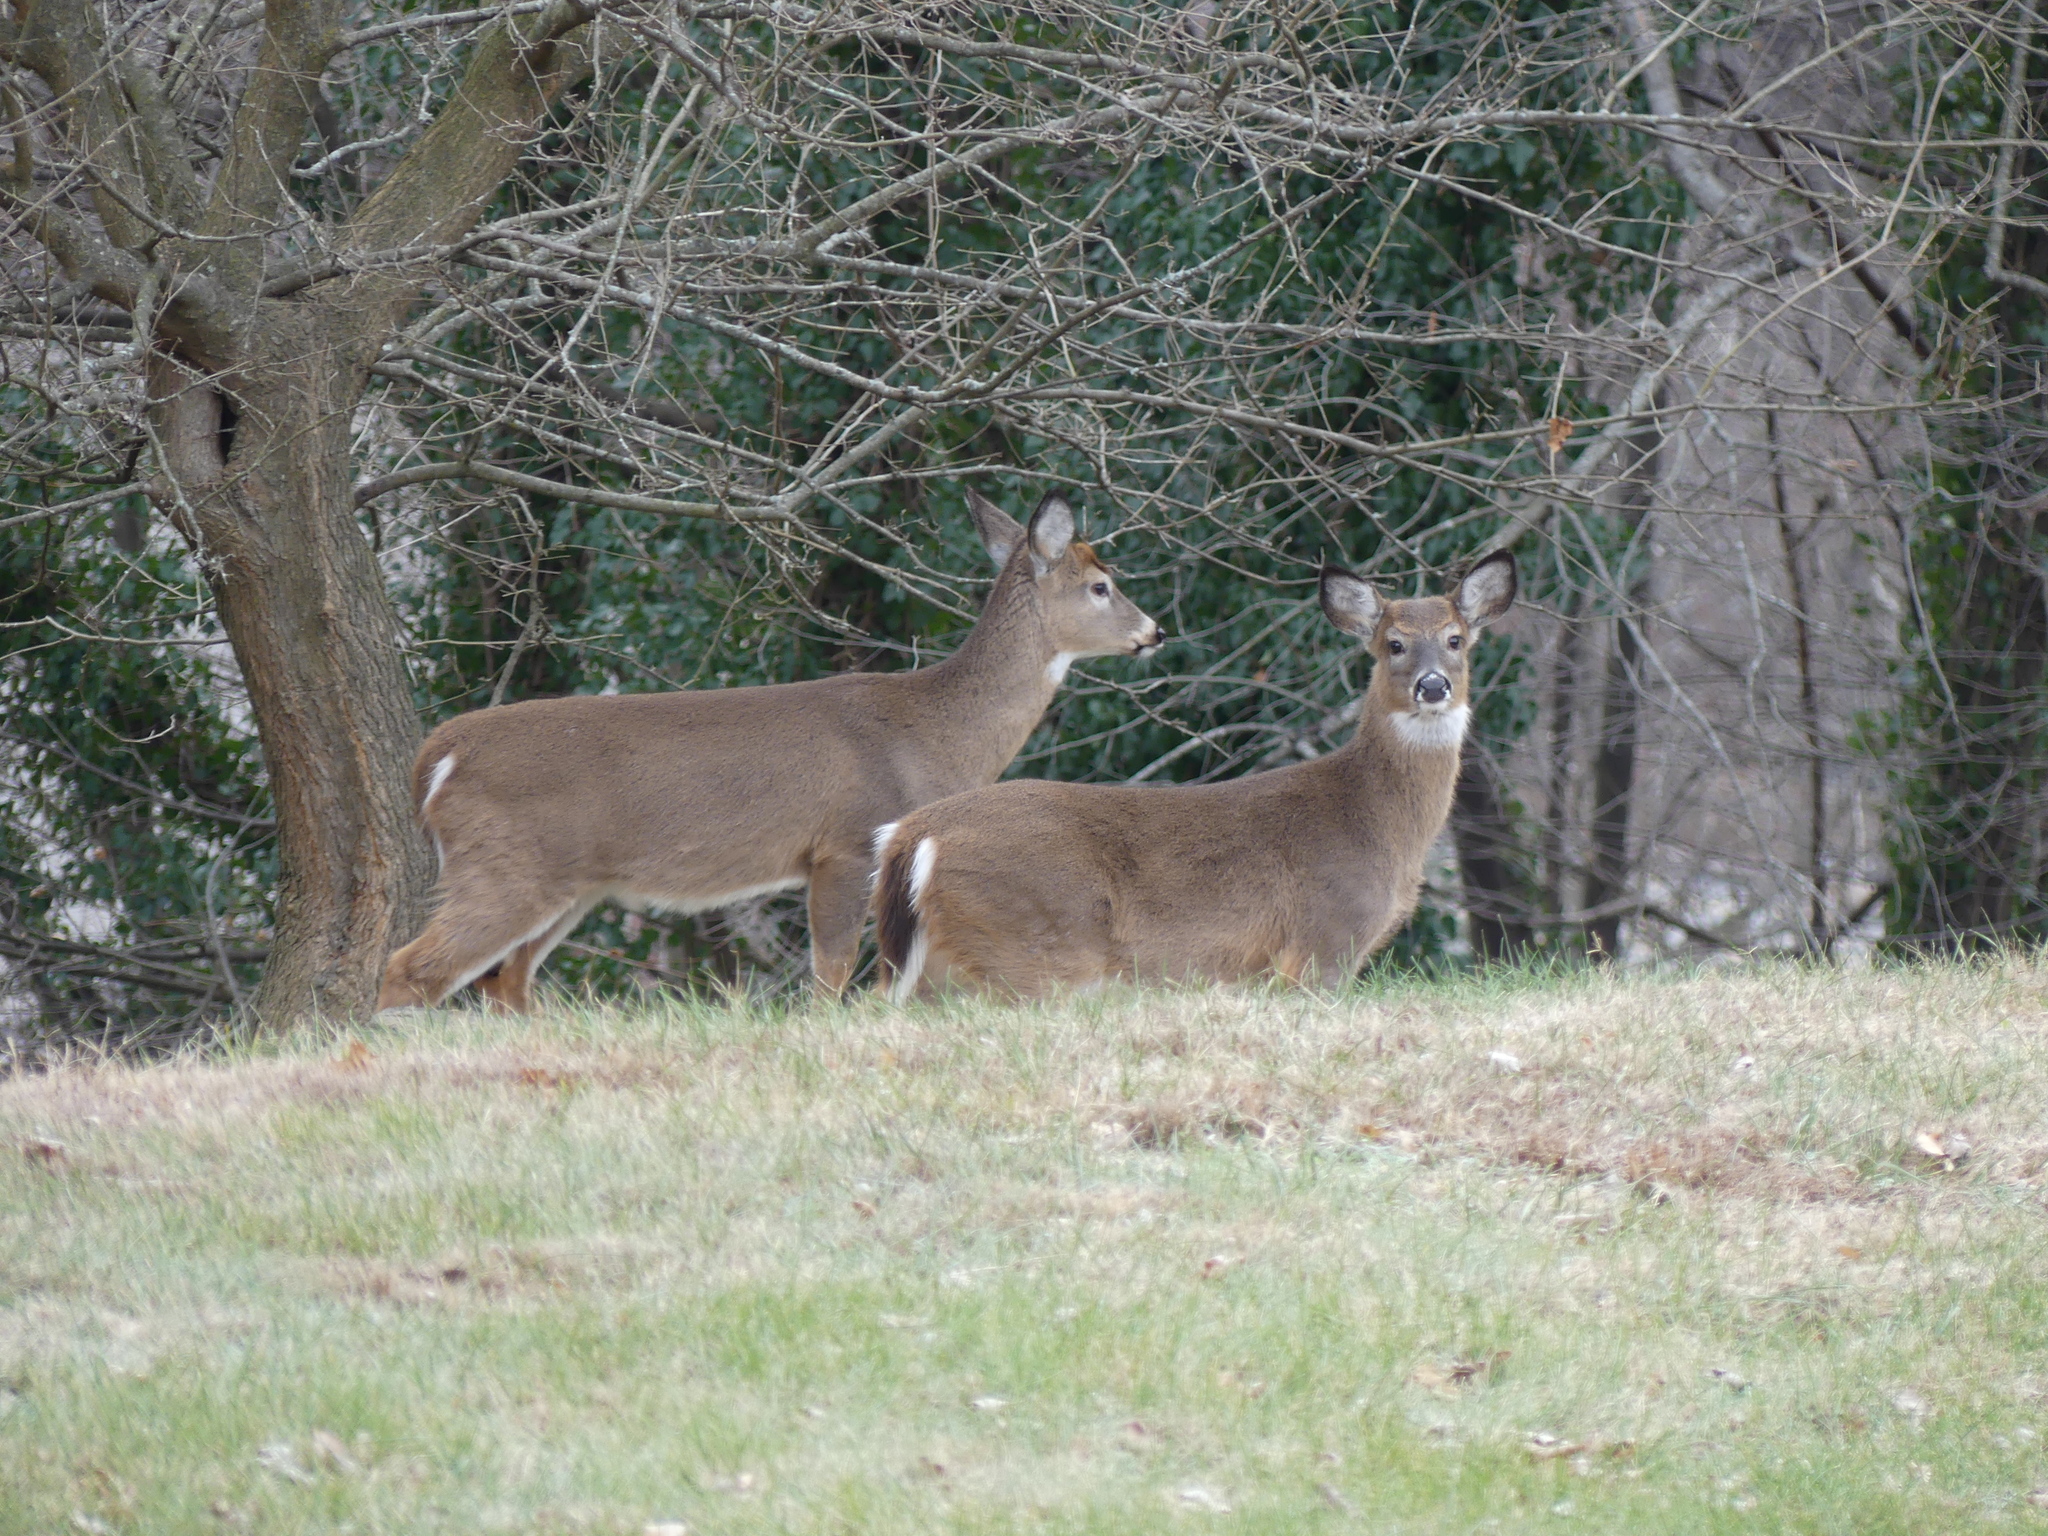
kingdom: Animalia
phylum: Chordata
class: Mammalia
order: Artiodactyla
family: Cervidae
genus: Odocoileus
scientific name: Odocoileus virginianus
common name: White-tailed deer
